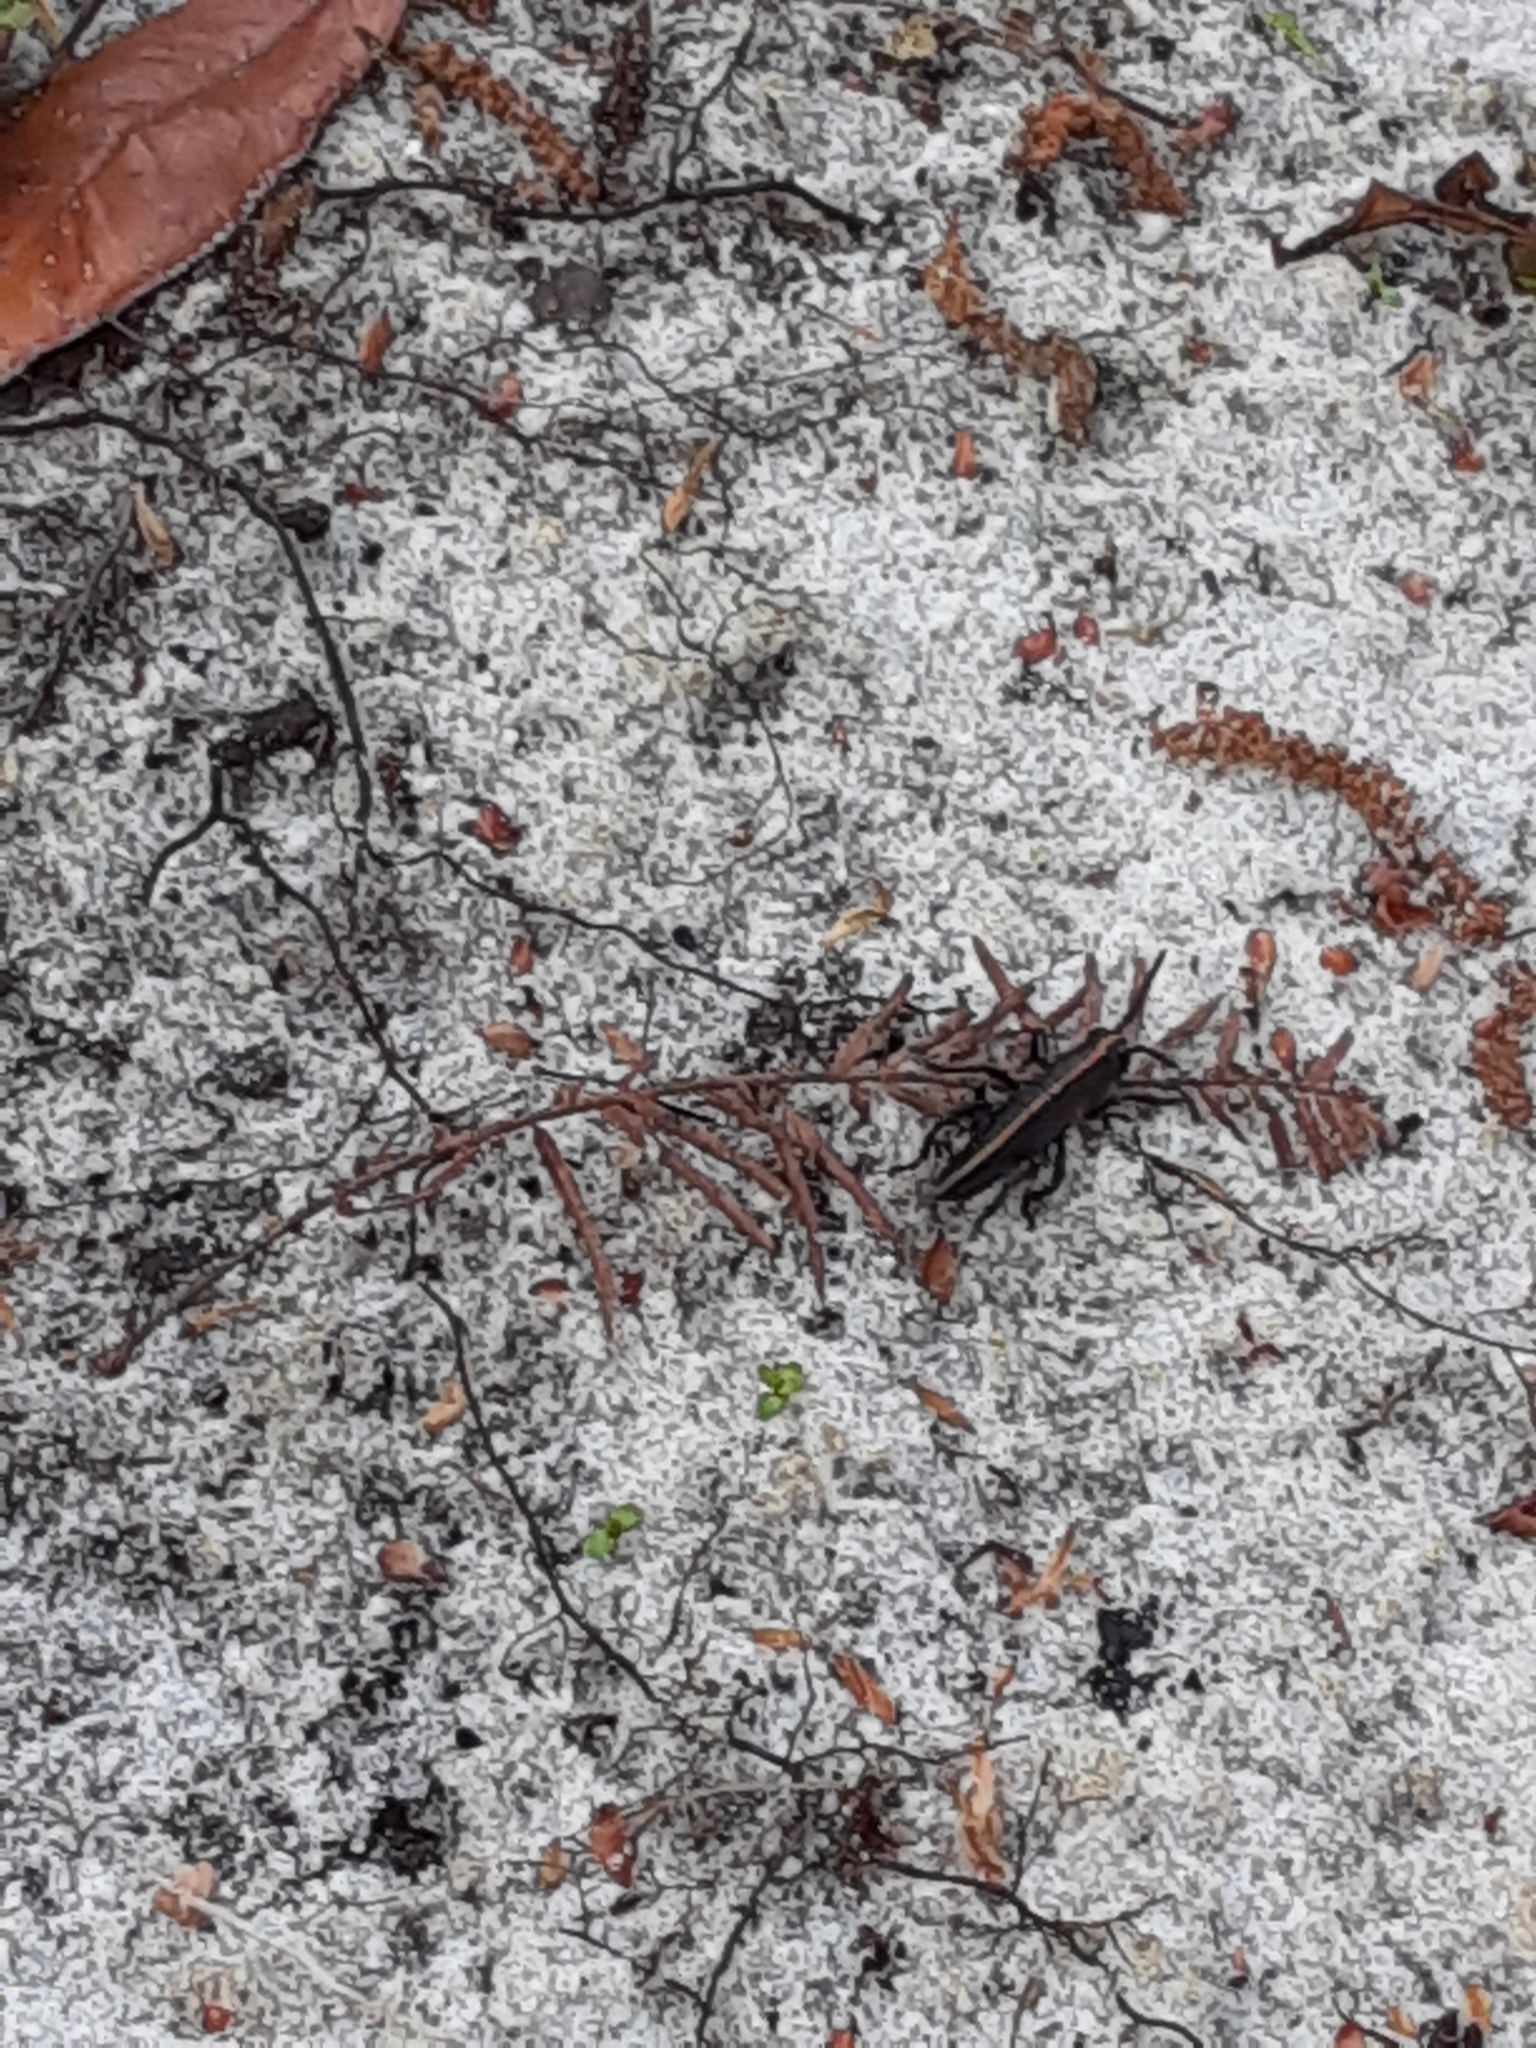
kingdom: Animalia
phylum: Arthropoda
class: Insecta
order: Orthoptera
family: Romaleidae
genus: Romalea
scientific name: Romalea microptera
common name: Eastern lubber grasshopper
